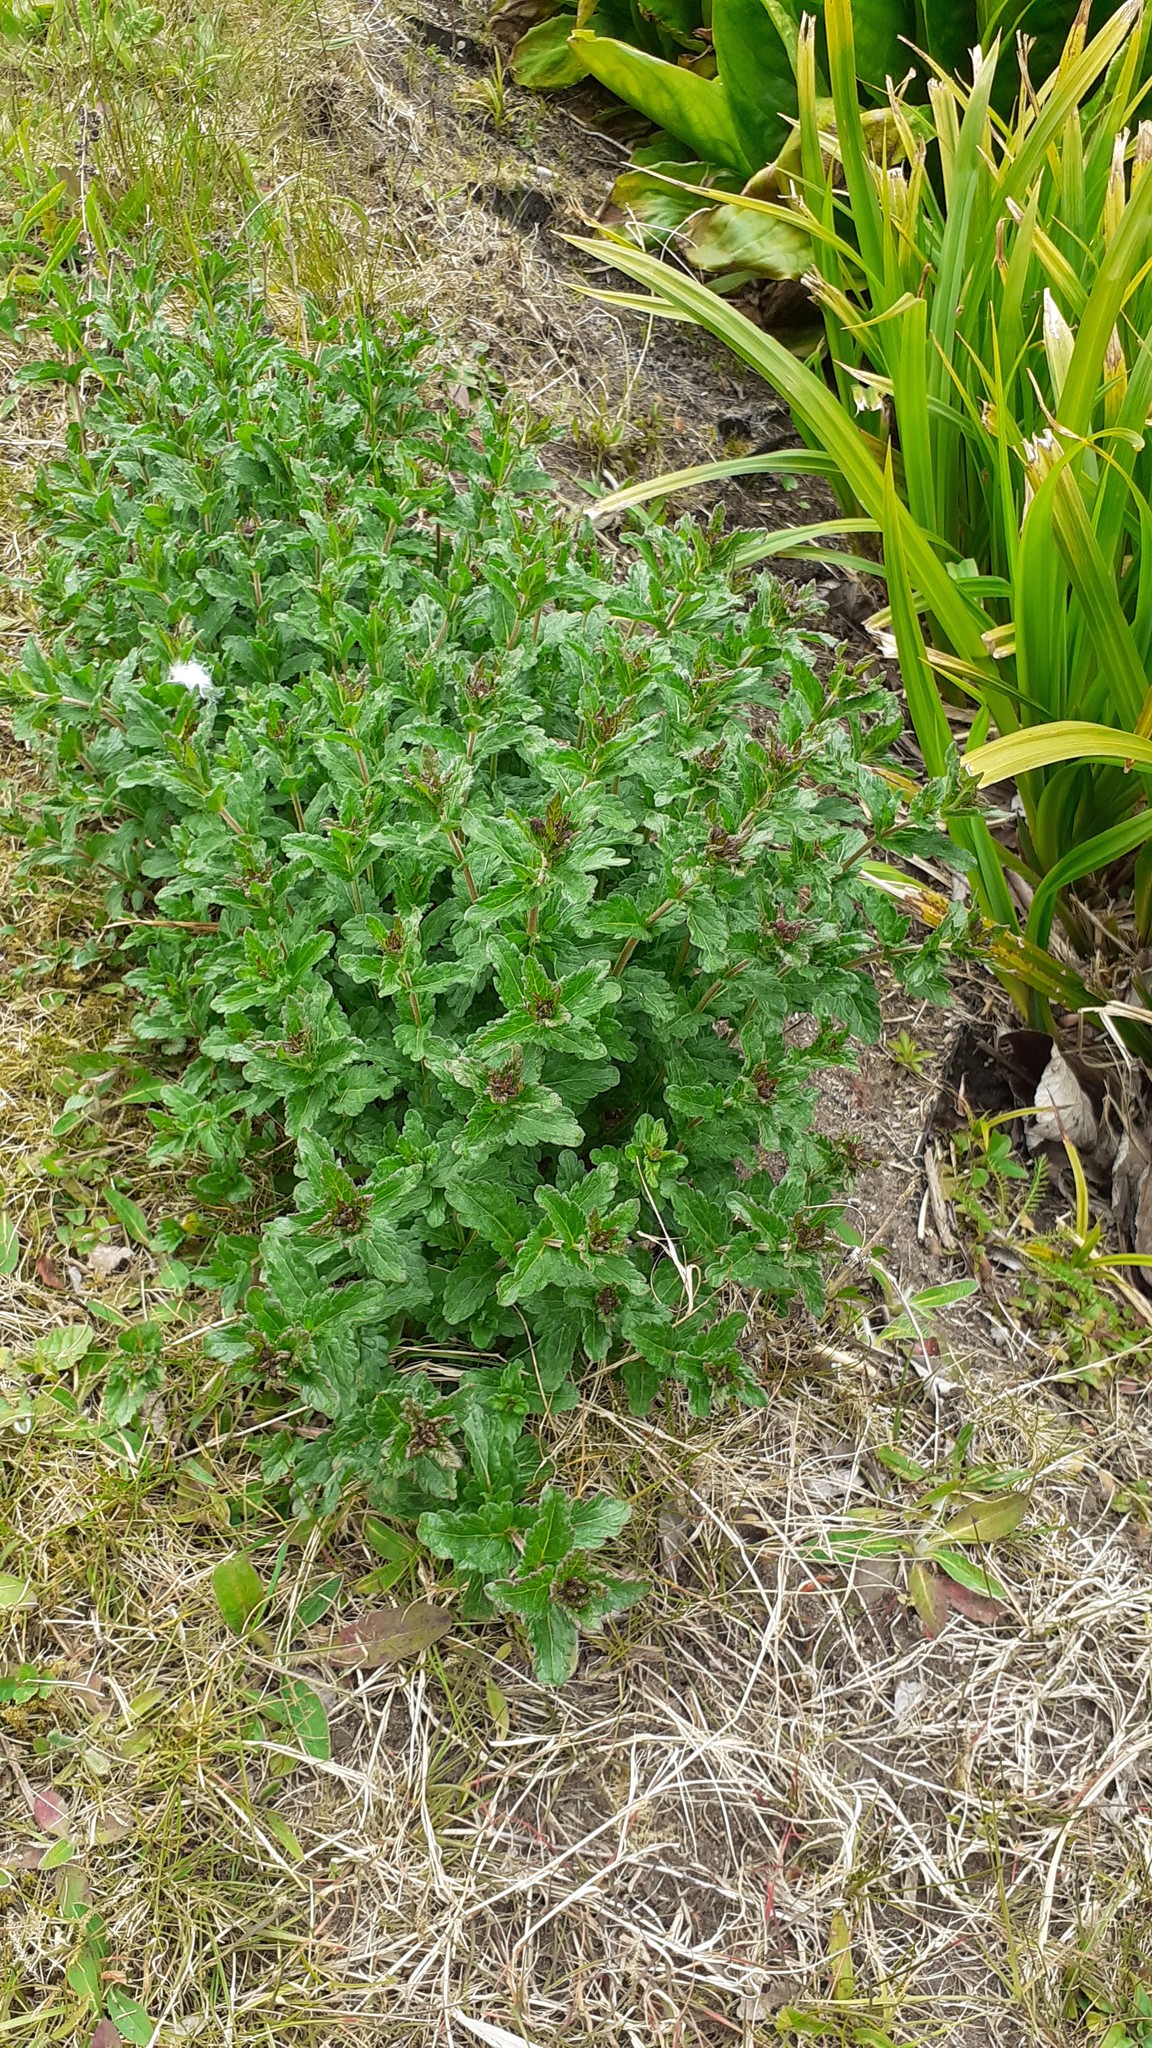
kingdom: Plantae
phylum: Tracheophyta
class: Magnoliopsida
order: Lamiales
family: Plantaginaceae
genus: Veronica
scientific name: Veronica teucrium
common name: Large speedwell
